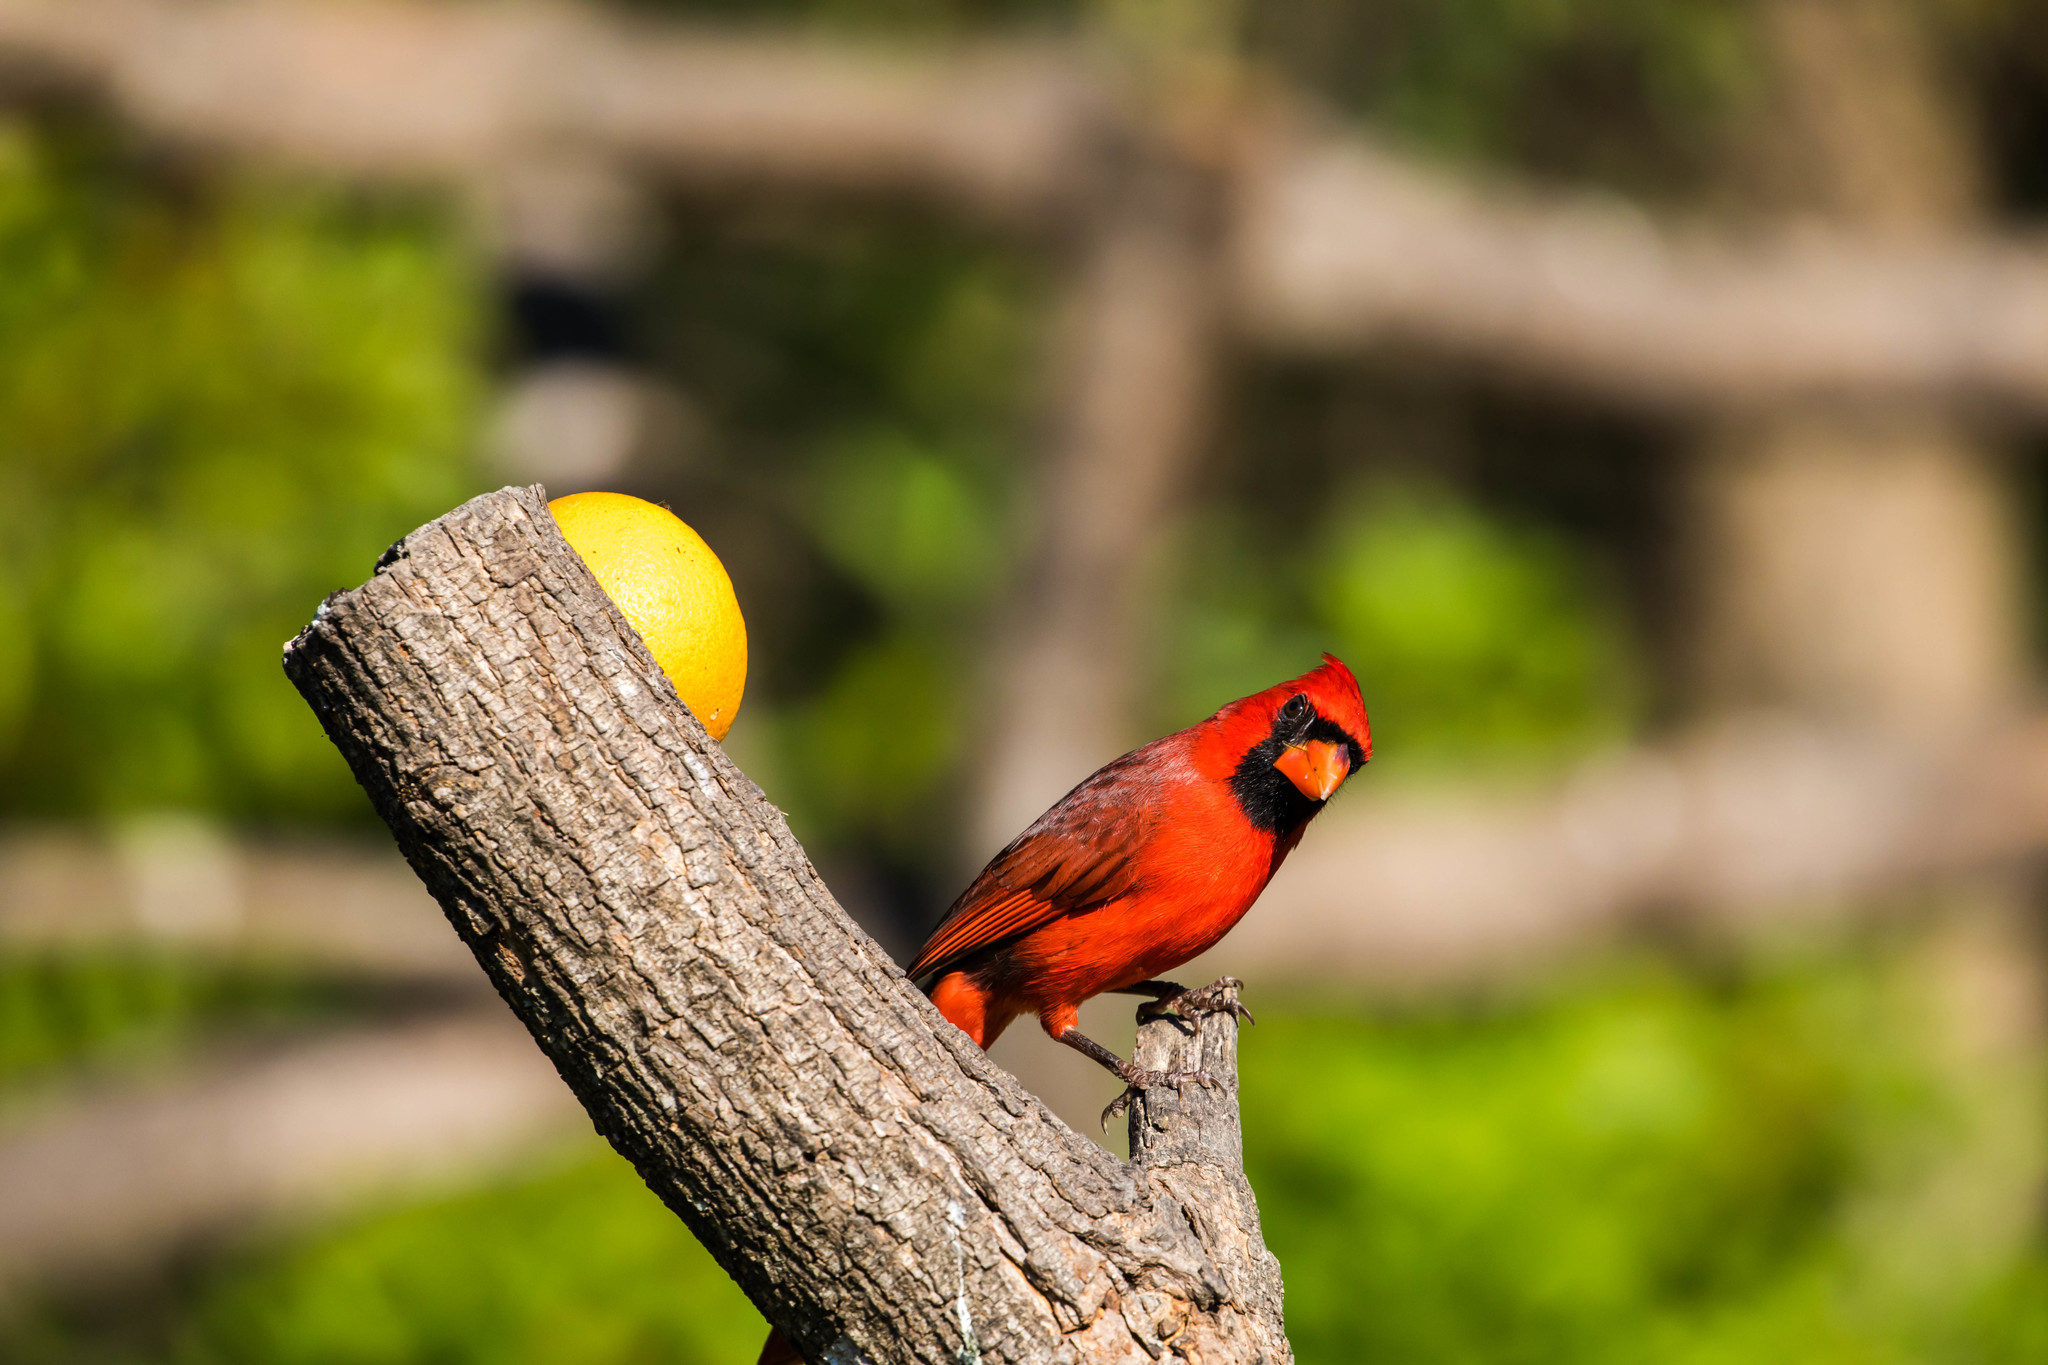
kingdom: Animalia
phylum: Chordata
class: Aves
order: Passeriformes
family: Cardinalidae
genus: Cardinalis
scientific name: Cardinalis cardinalis
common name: Northern cardinal
